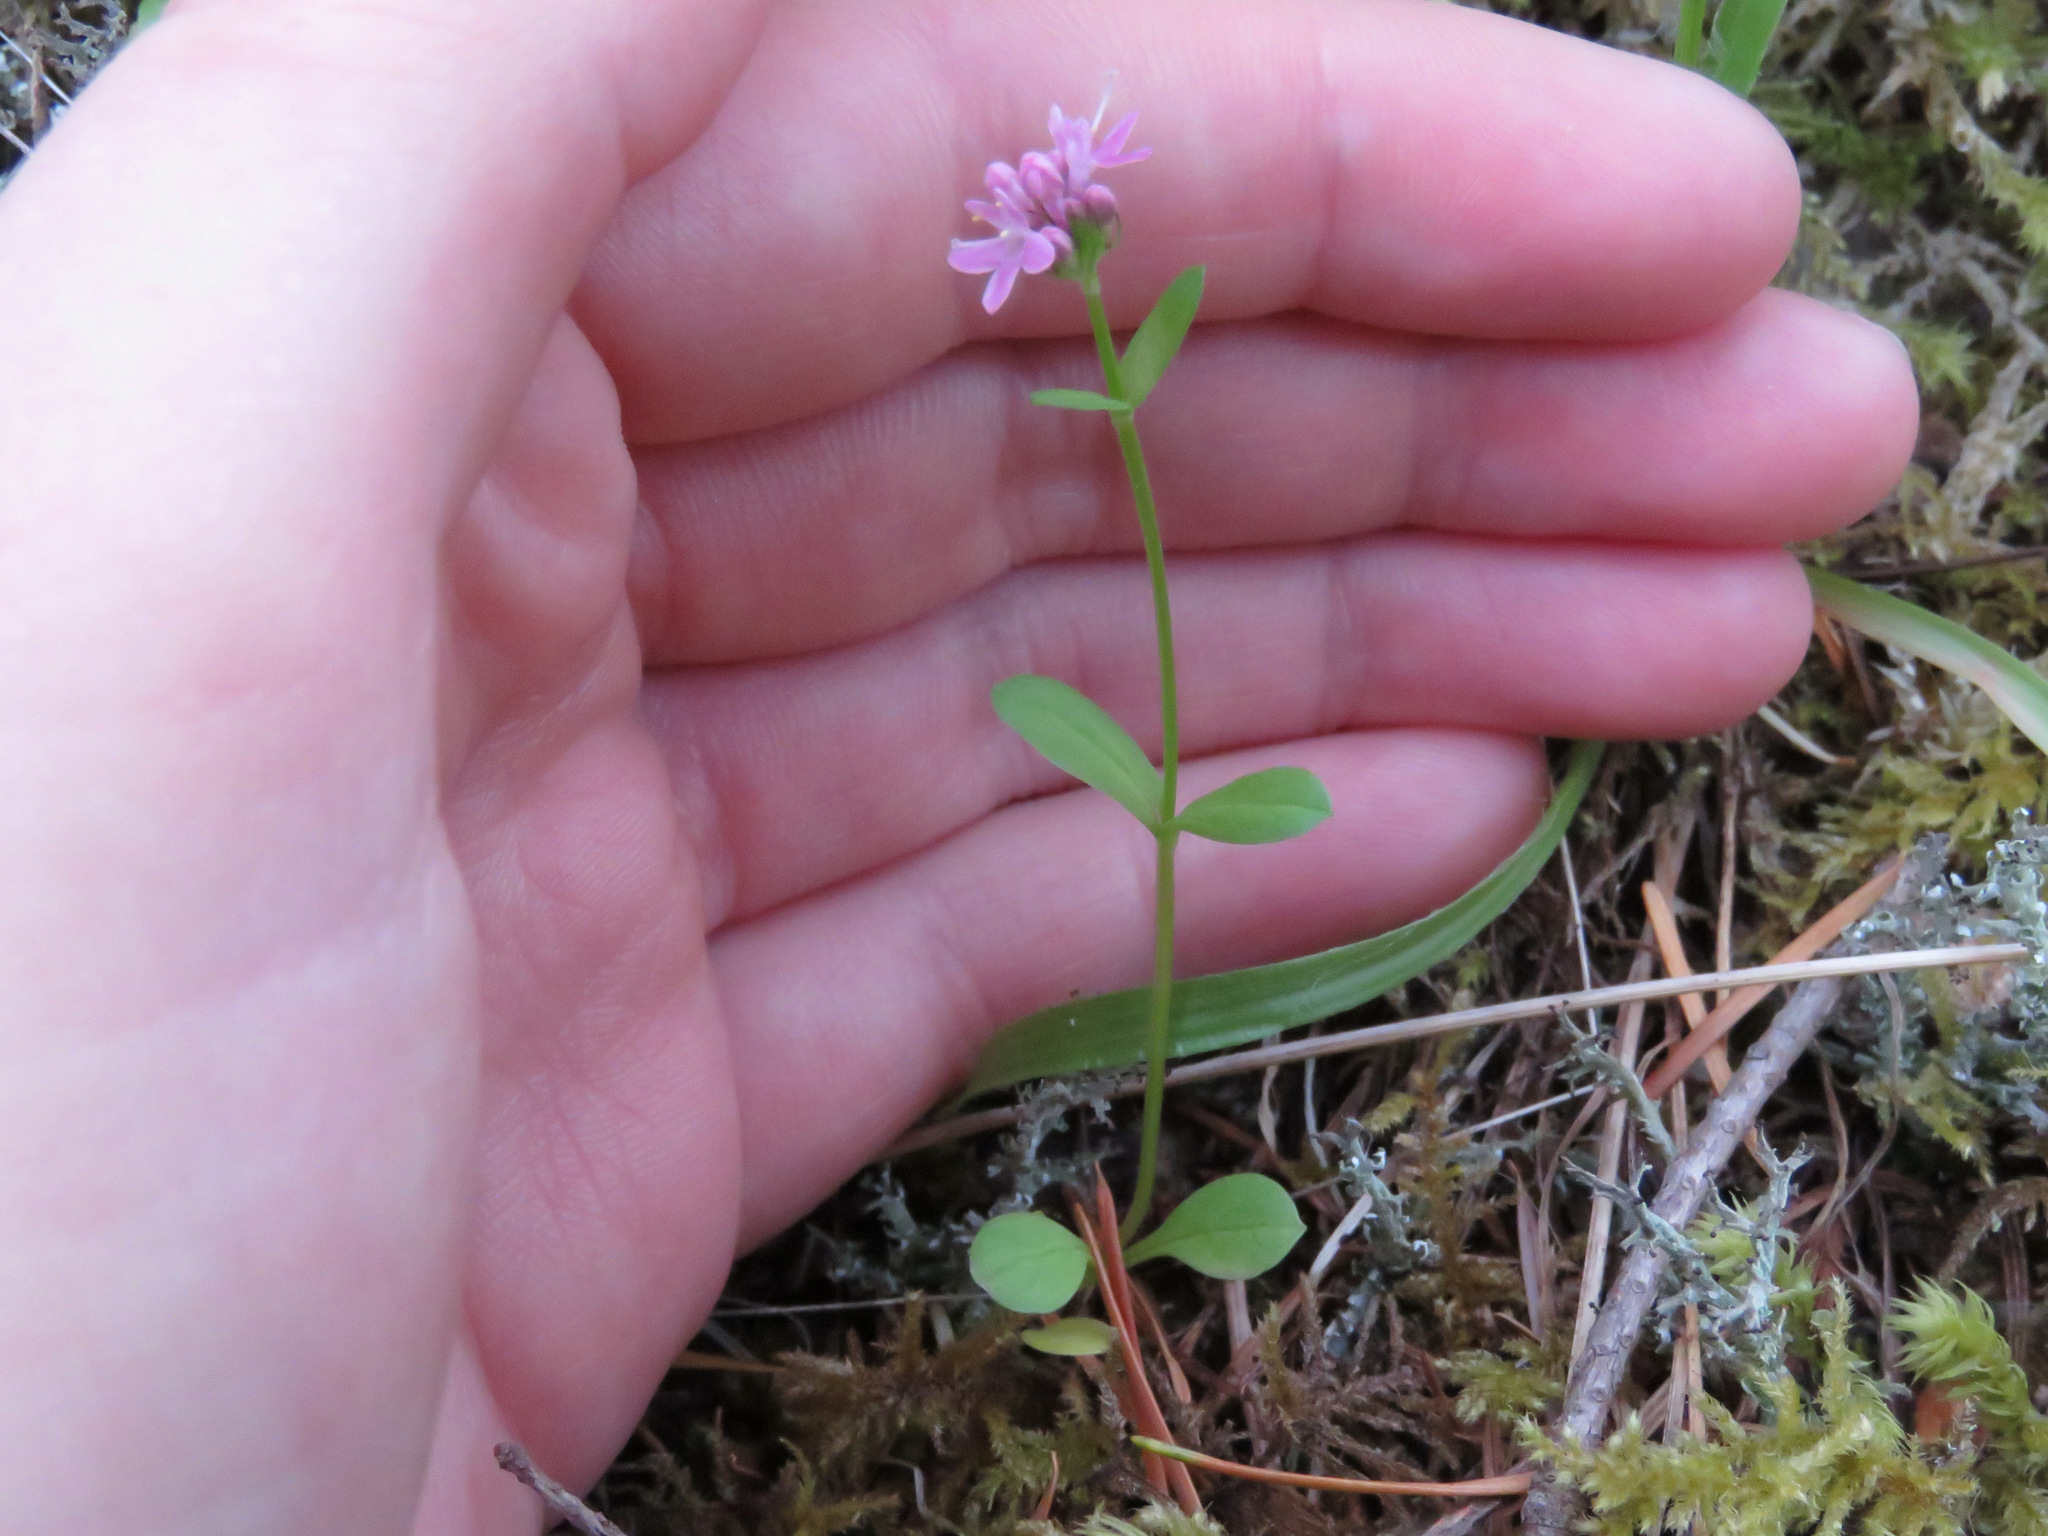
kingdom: Plantae
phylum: Tracheophyta
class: Magnoliopsida
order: Dipsacales
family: Caprifoliaceae
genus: Plectritis
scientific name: Plectritis congesta
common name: Pink plectritis
